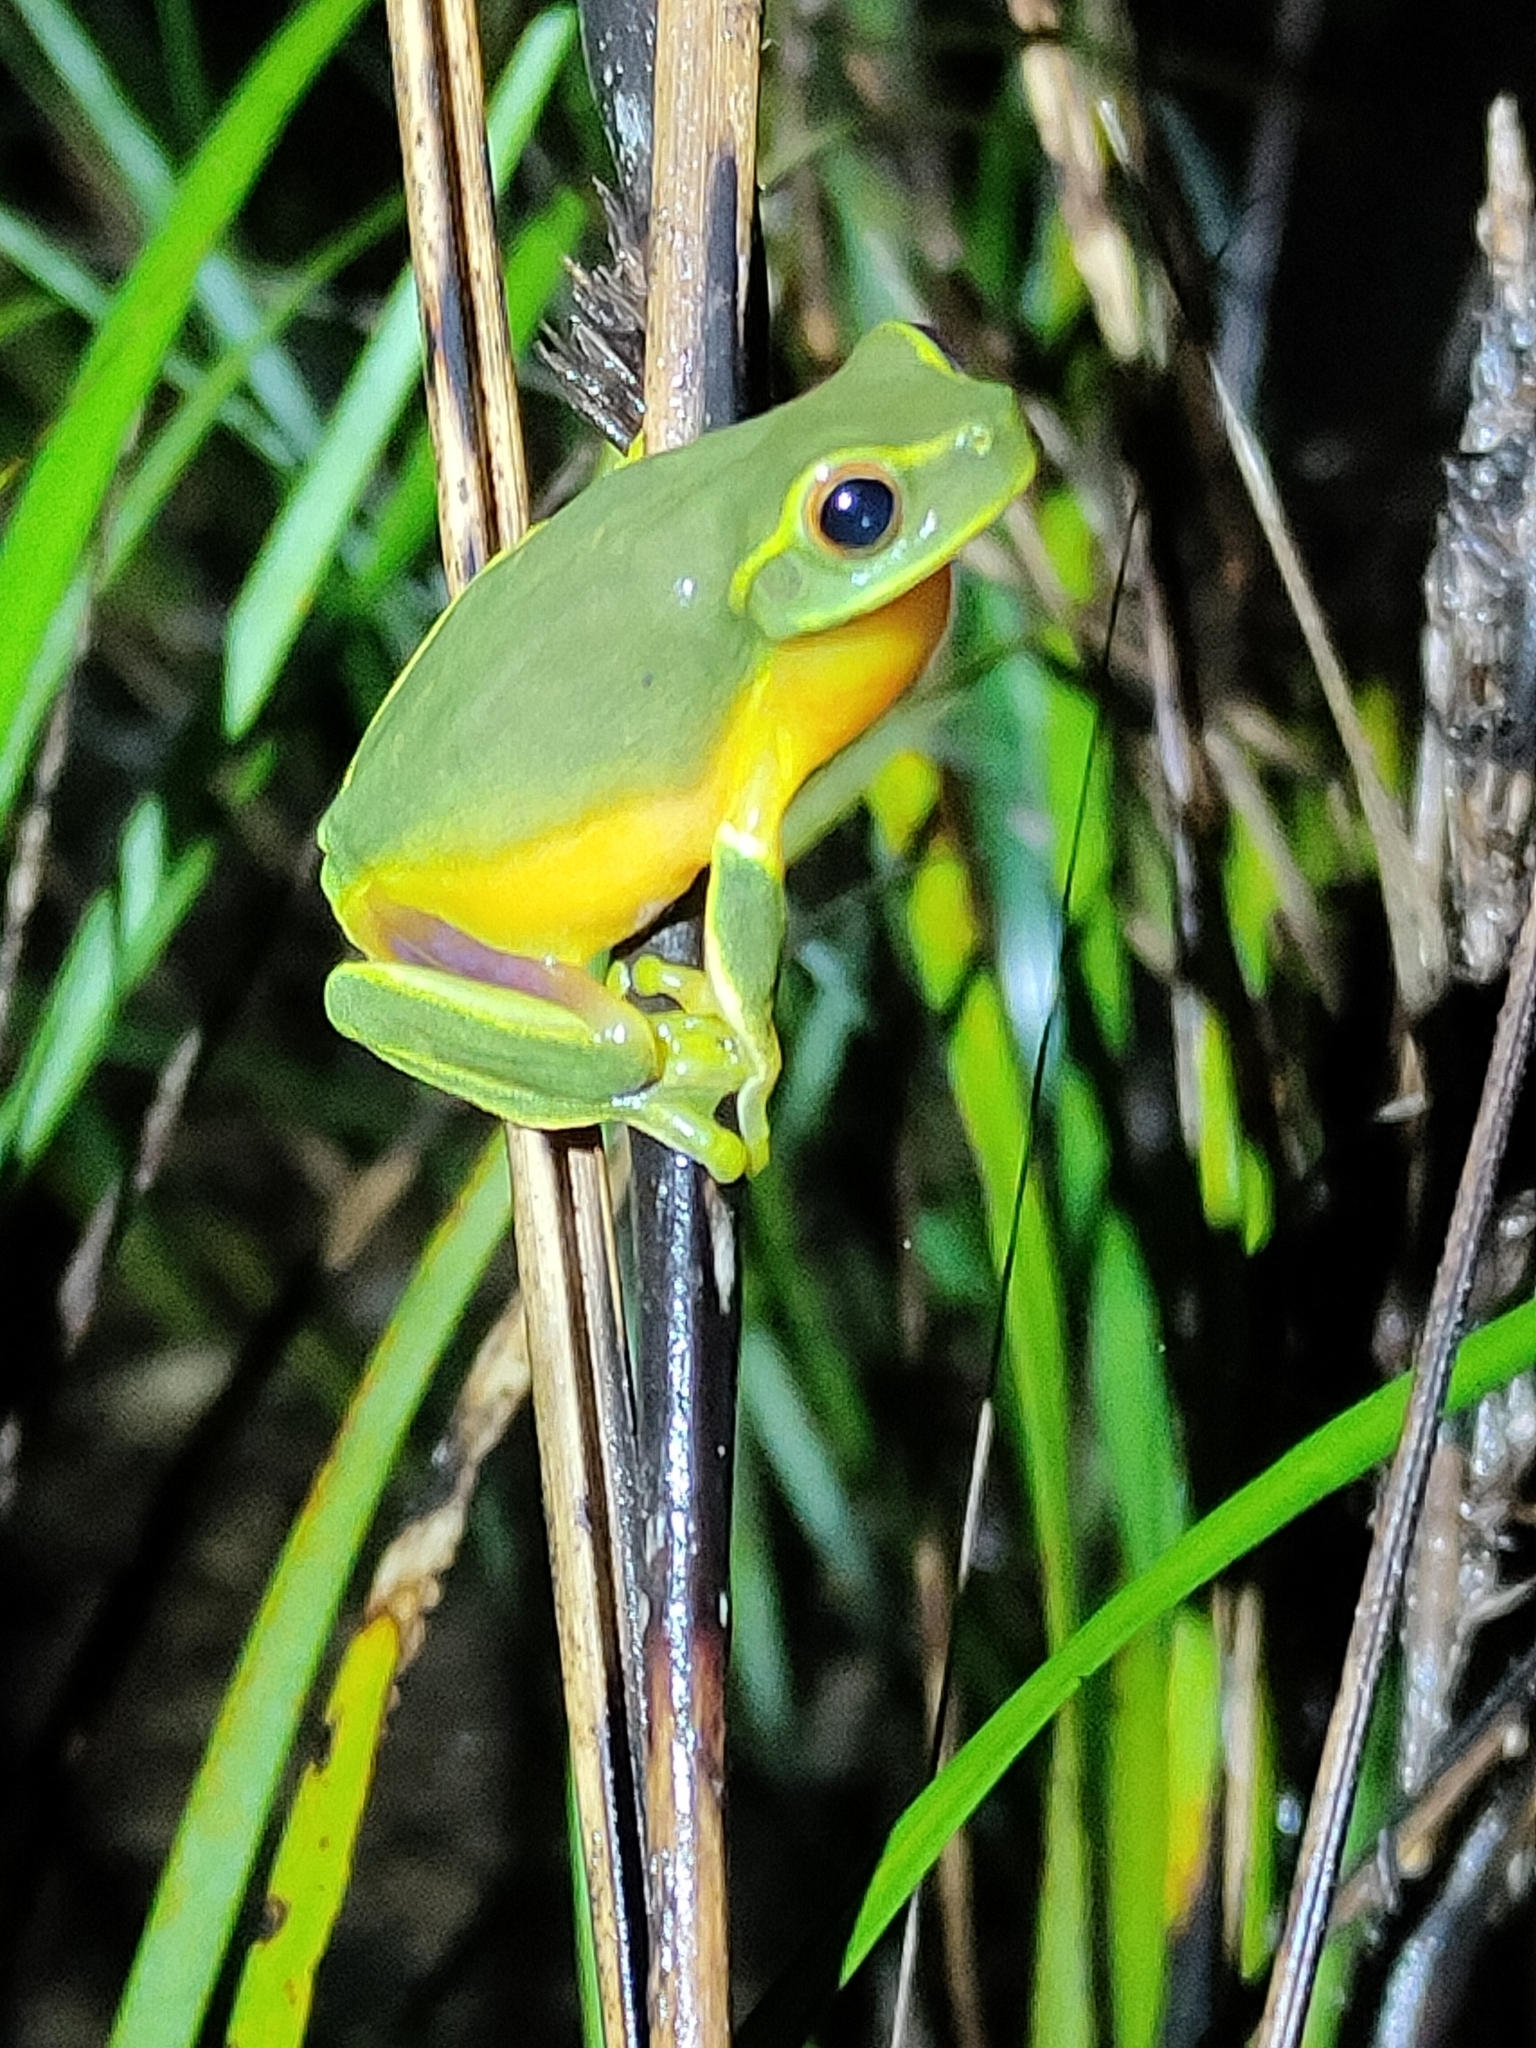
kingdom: Animalia
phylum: Chordata
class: Amphibia
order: Anura
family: Pelodryadidae
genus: Ranoidea
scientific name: Ranoidea gracilenta
